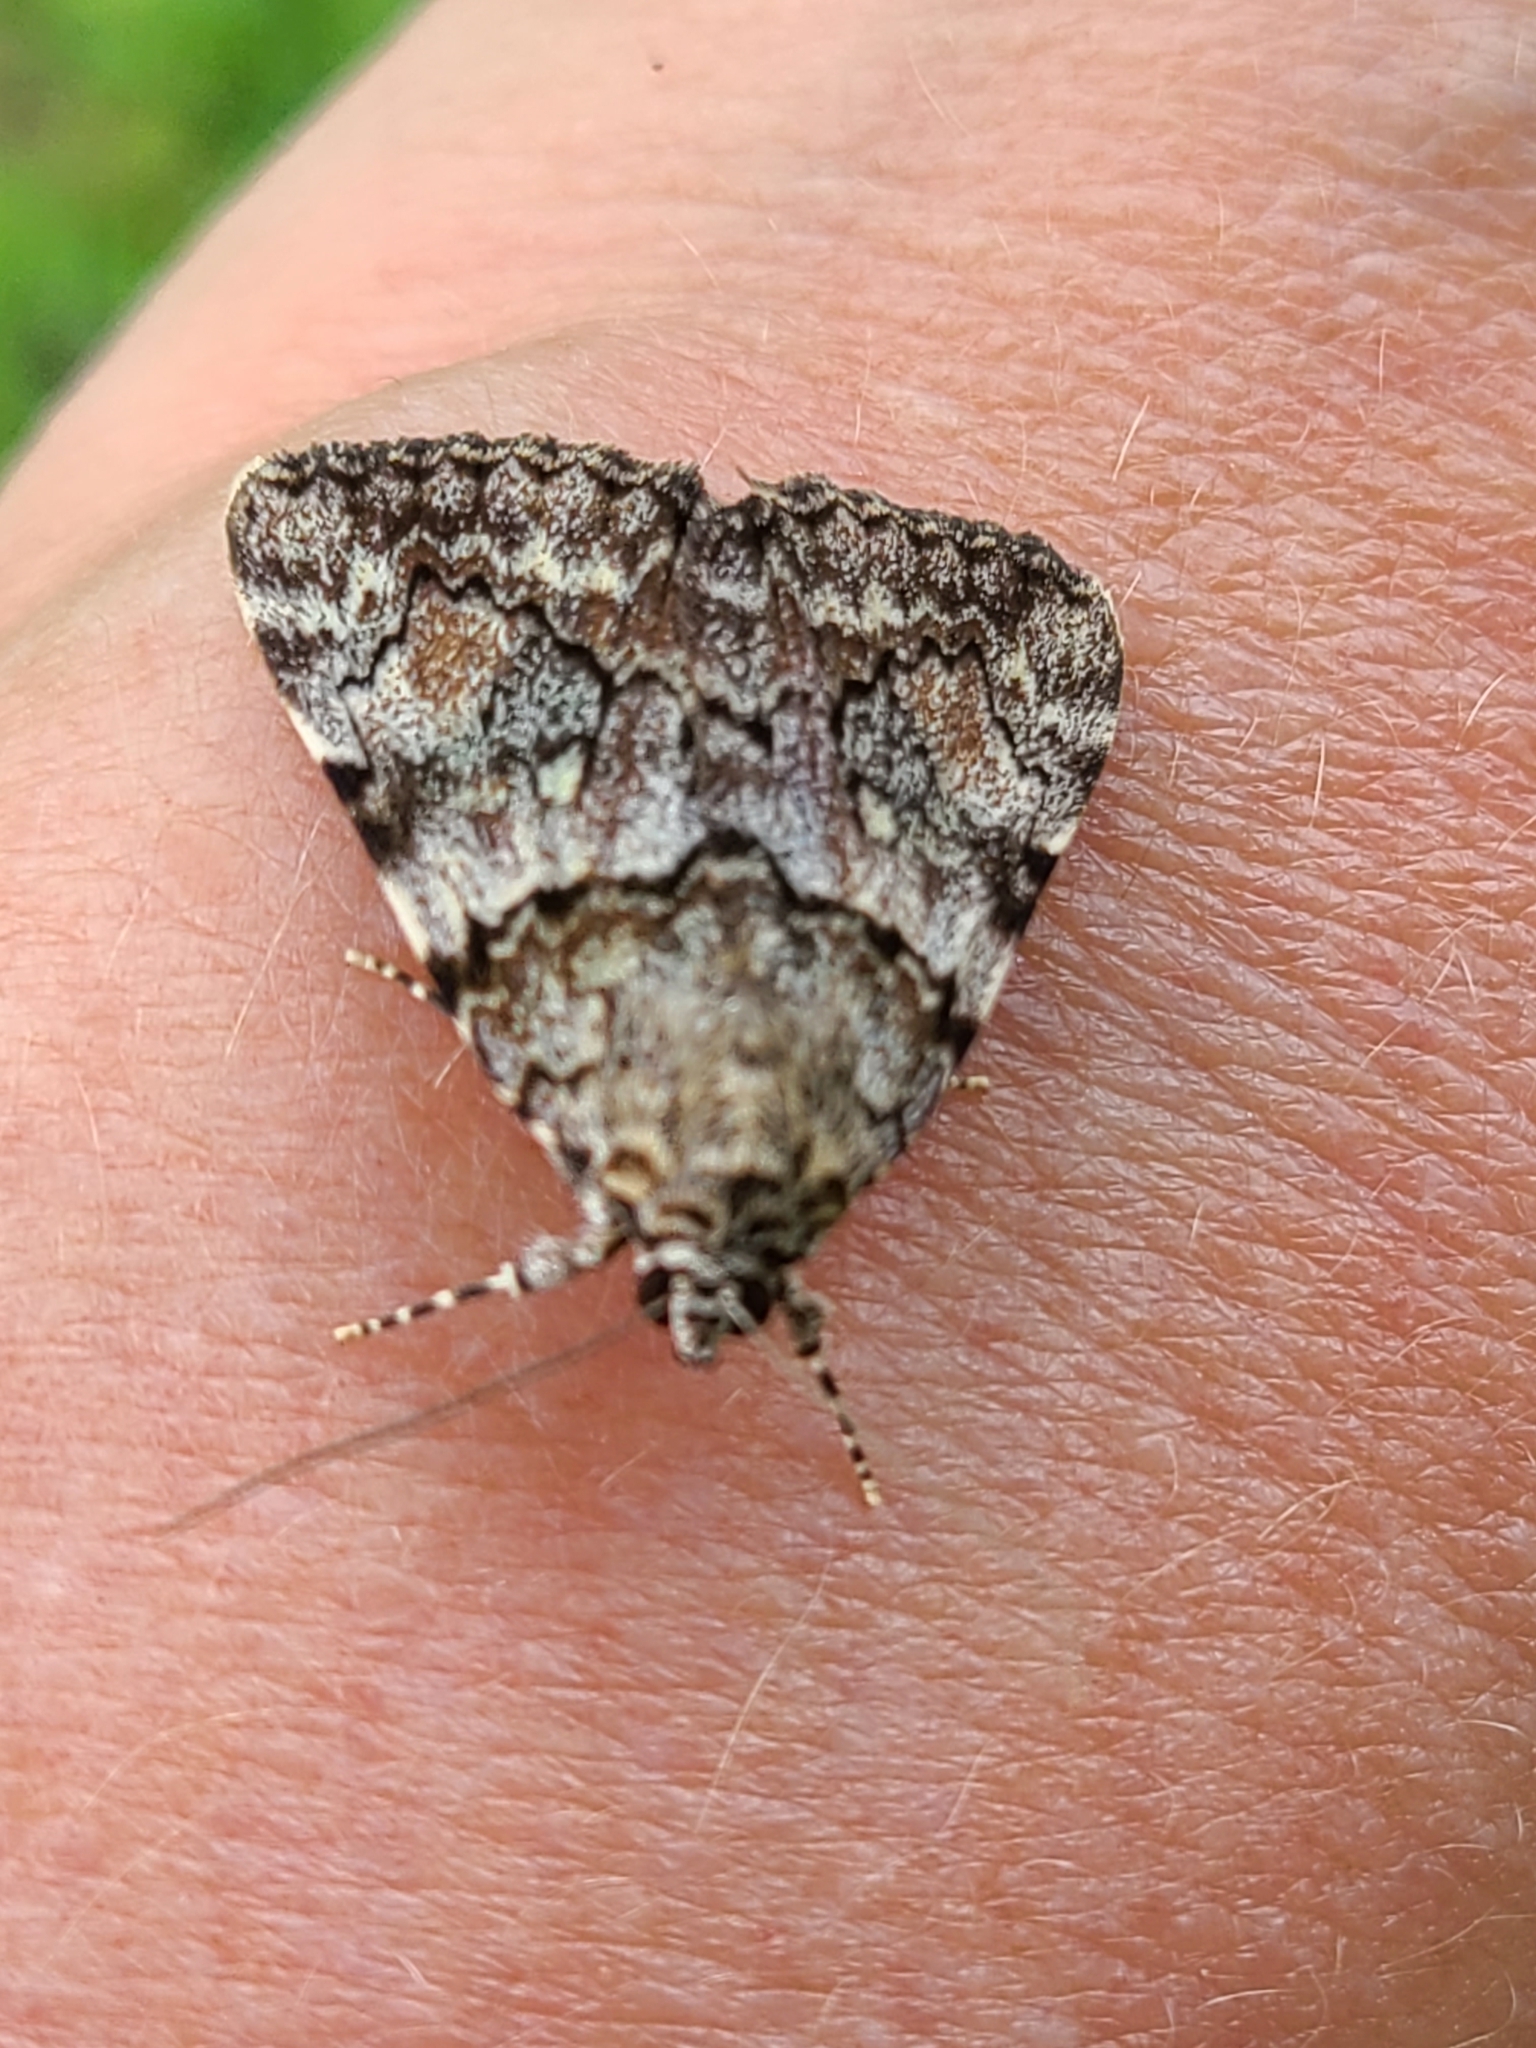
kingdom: Animalia
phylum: Arthropoda
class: Insecta
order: Lepidoptera
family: Erebidae
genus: Catocala
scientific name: Catocala lineella
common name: Little lined underwing
